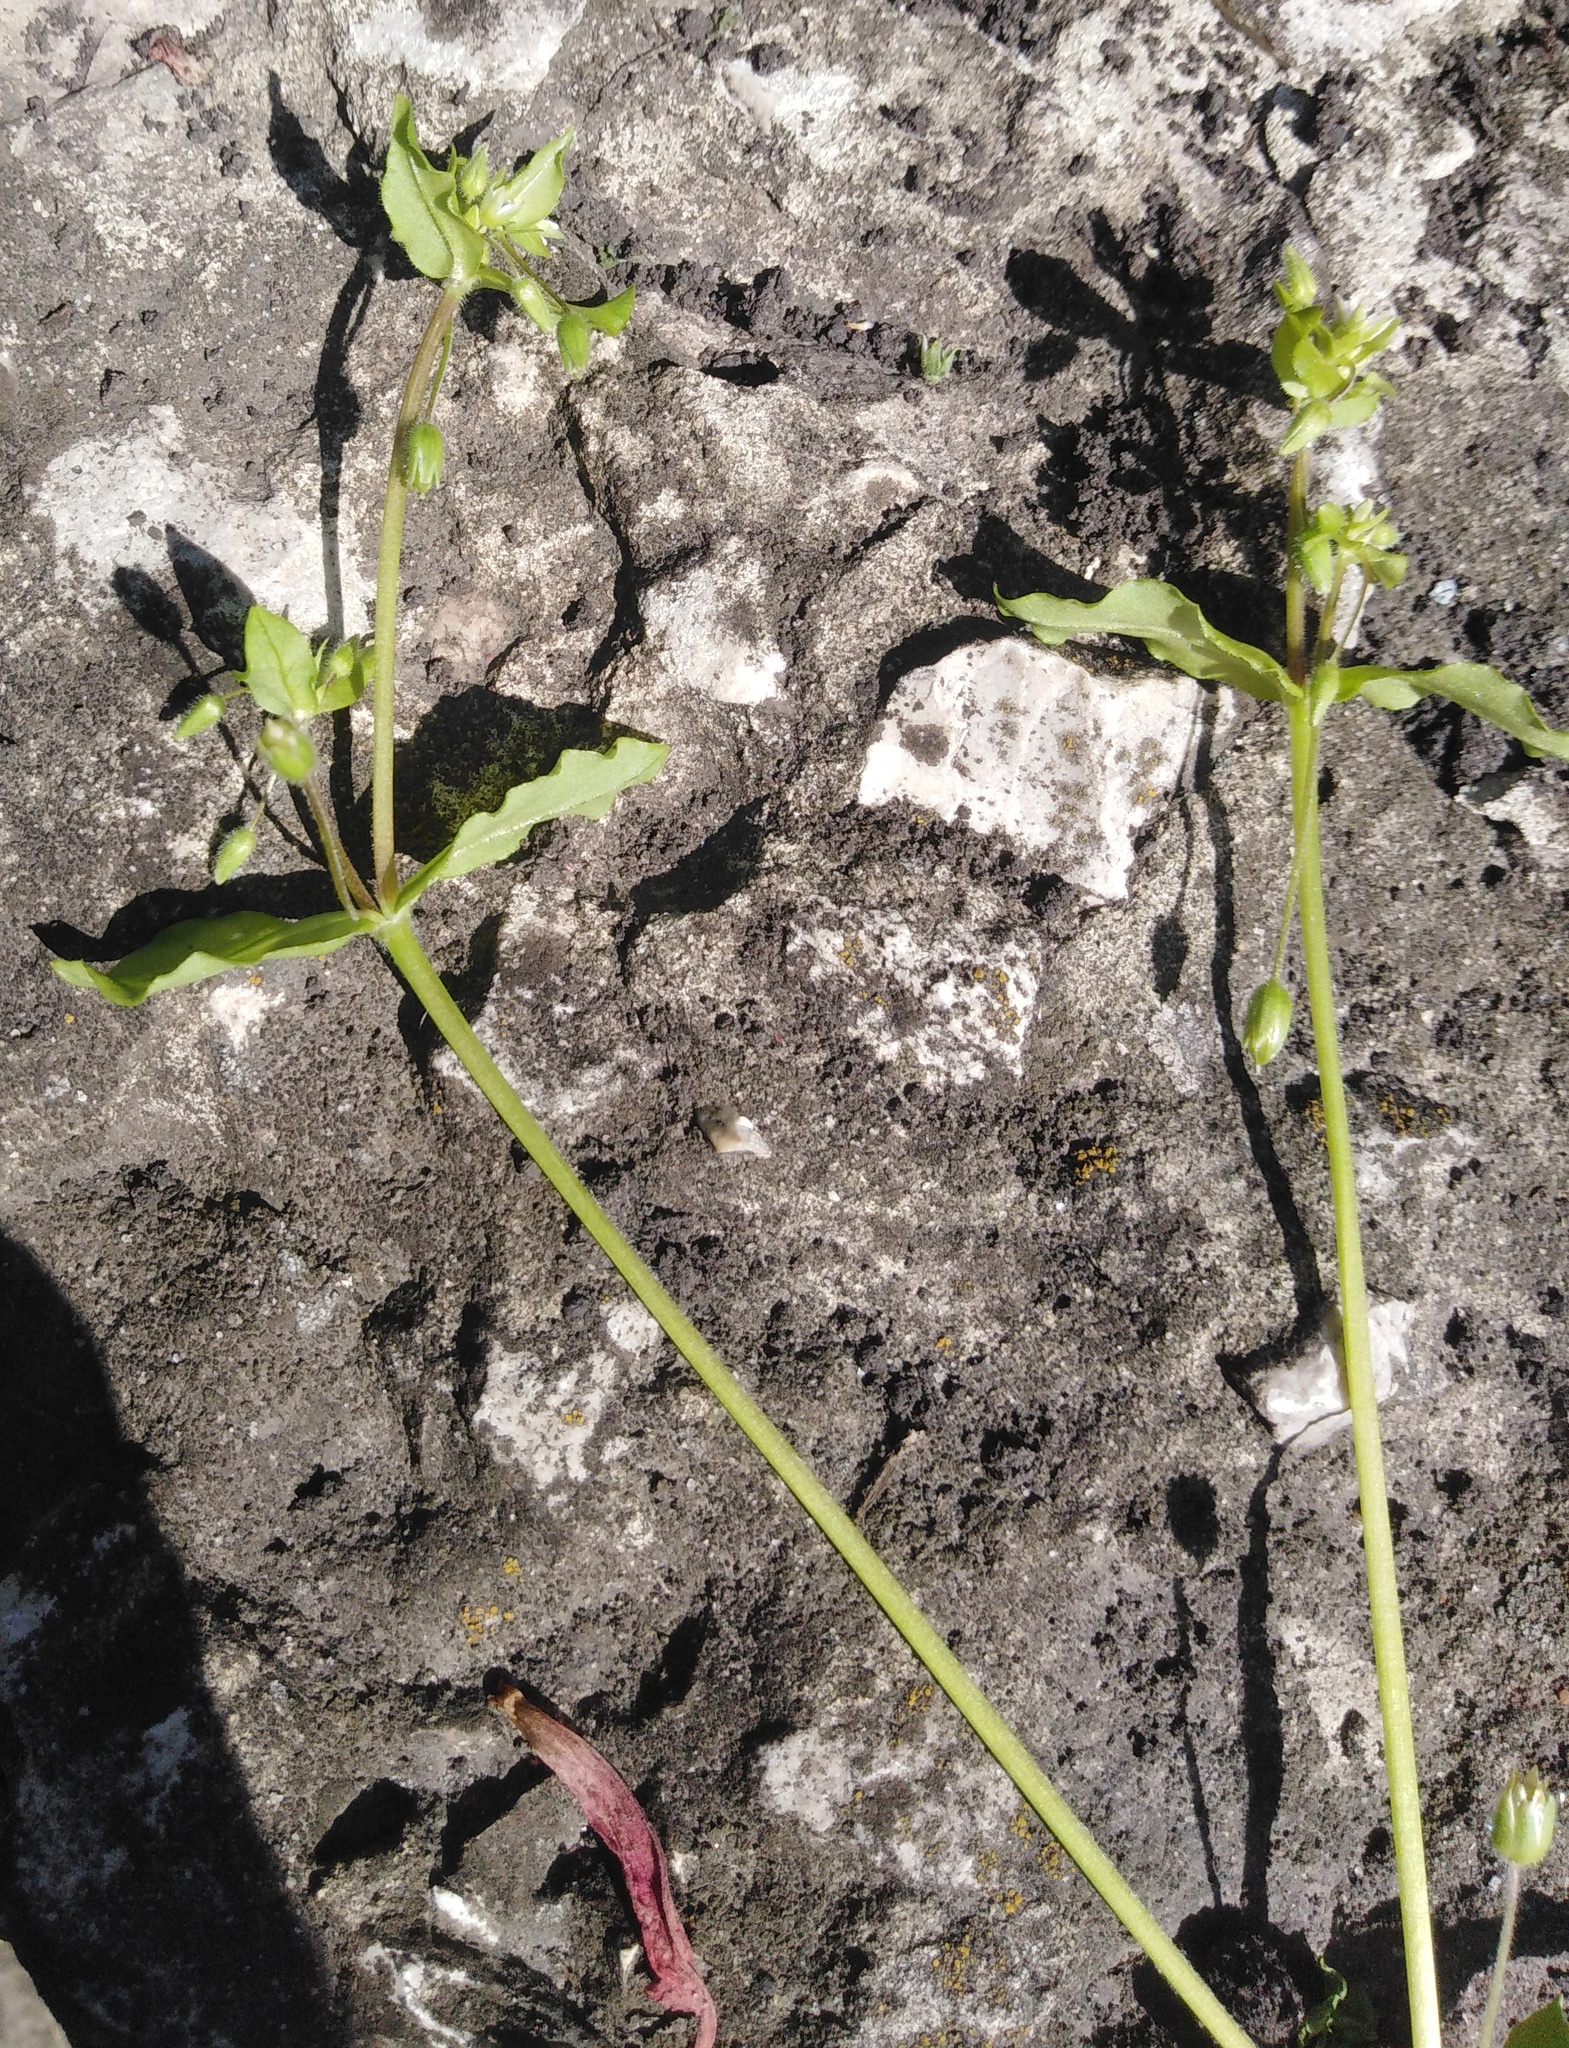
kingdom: Plantae
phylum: Tracheophyta
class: Magnoliopsida
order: Caryophyllales
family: Caryophyllaceae
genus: Stellaria
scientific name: Stellaria media
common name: Common chickweed
